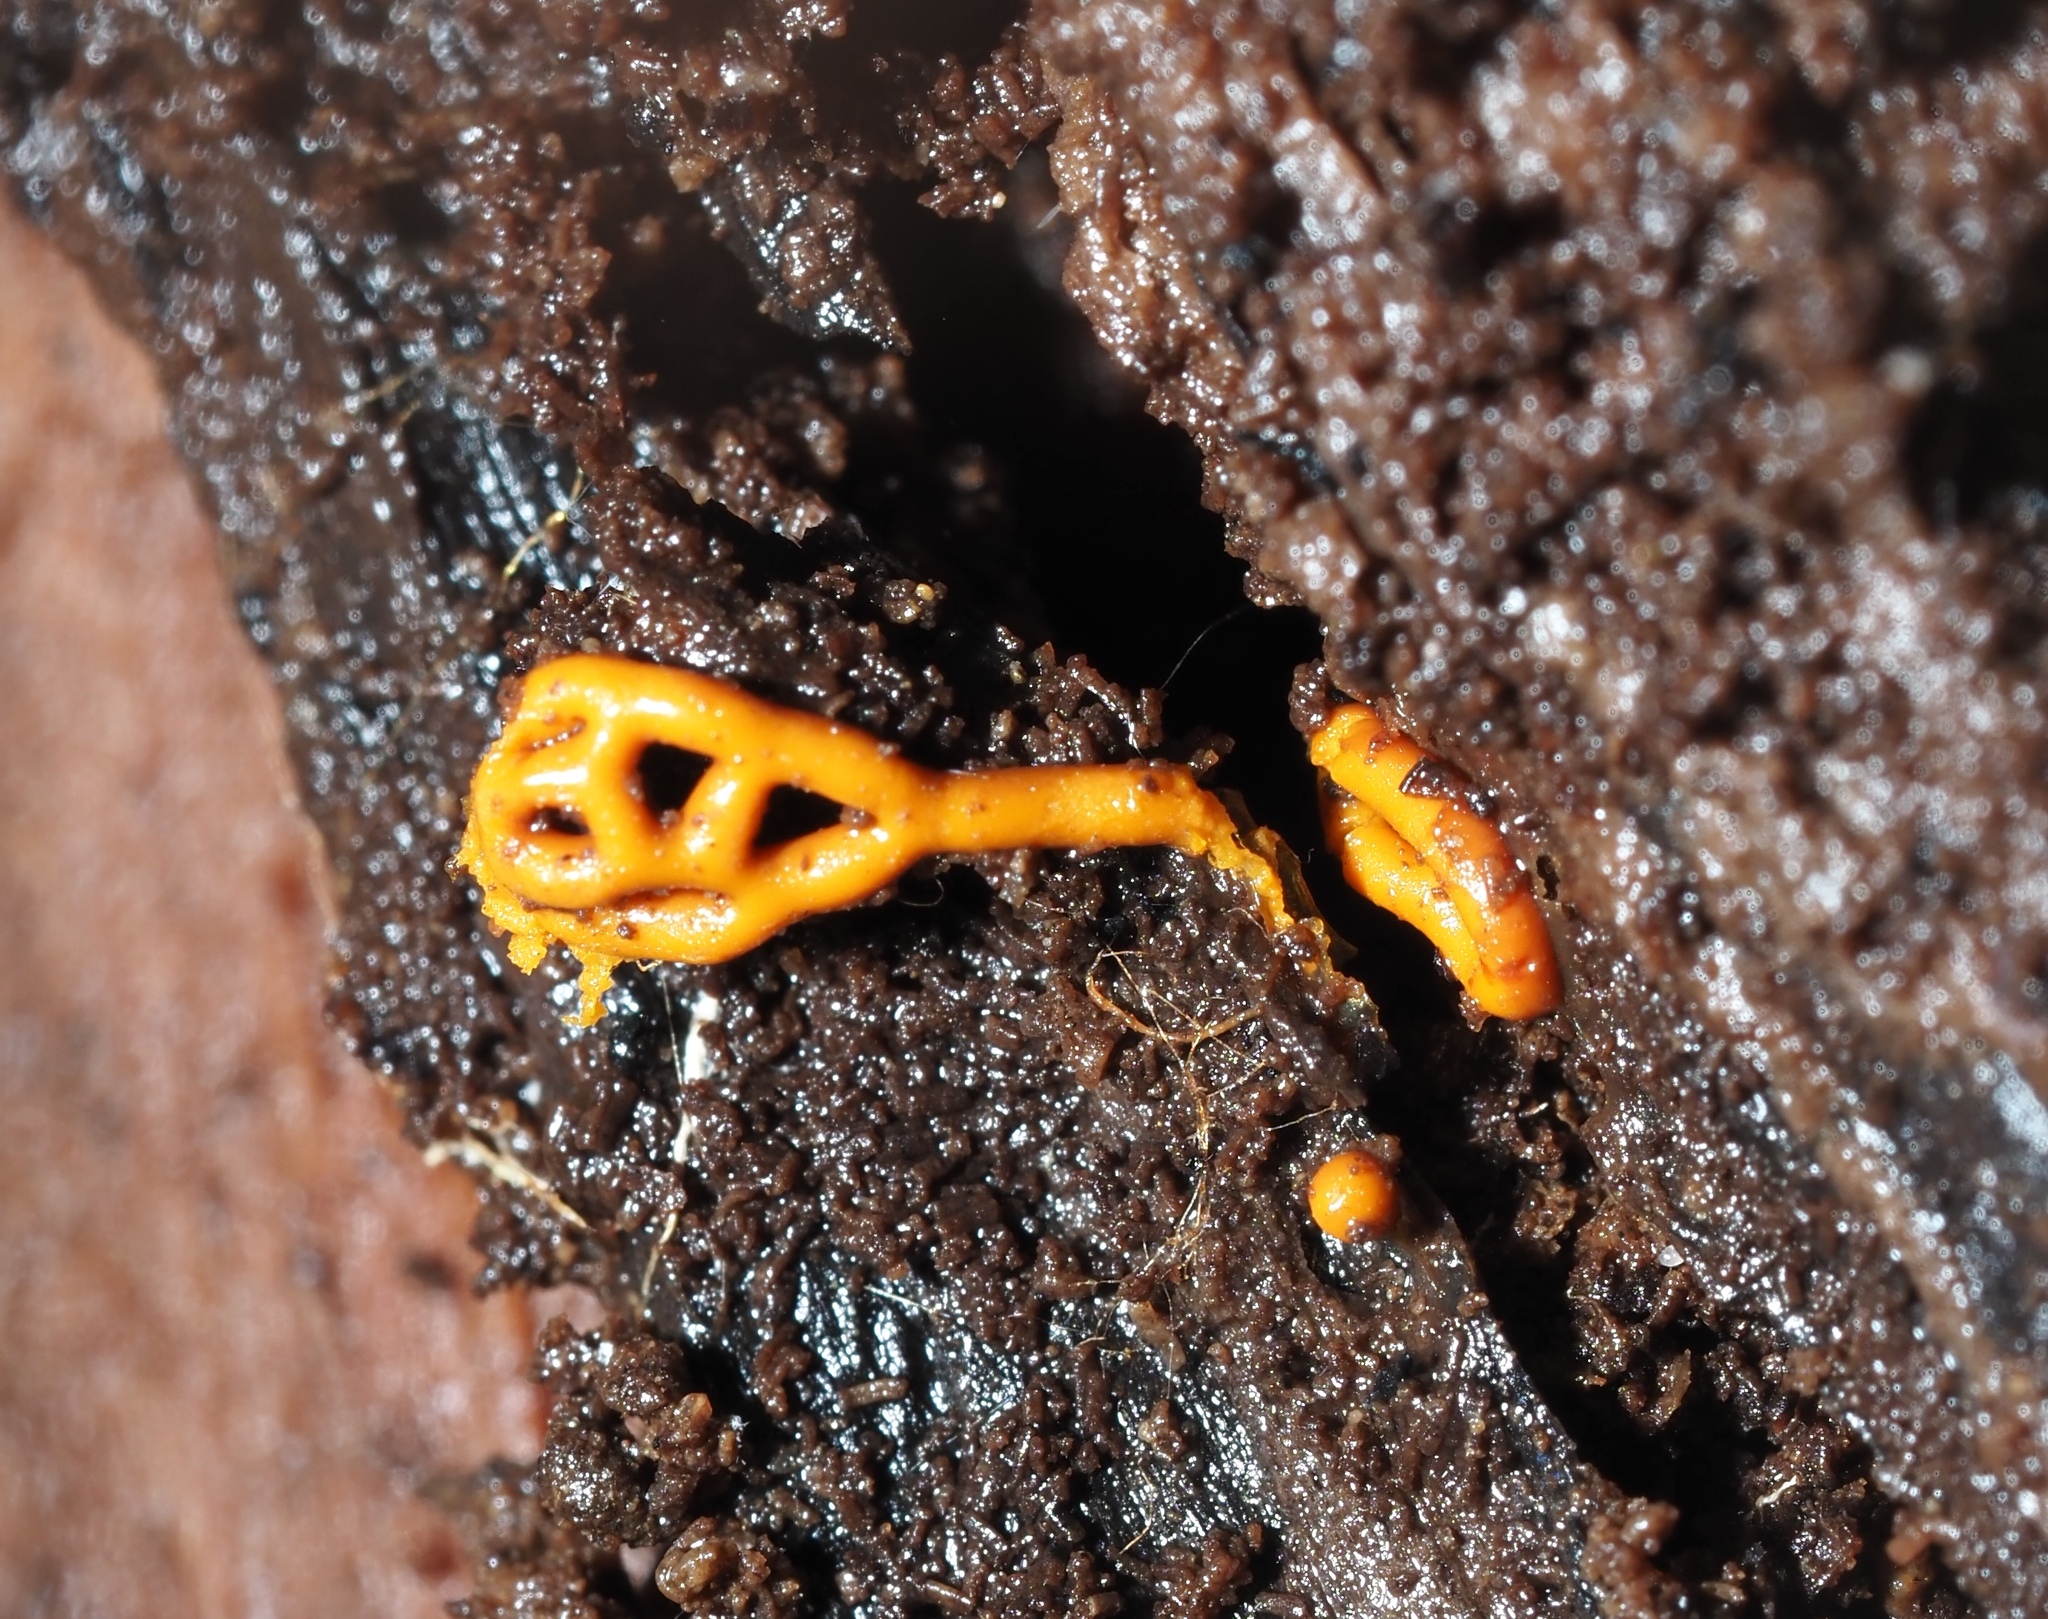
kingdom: Protozoa
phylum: Mycetozoa
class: Myxomycetes
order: Trichiales
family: Arcyriaceae
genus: Hemitrichia
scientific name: Hemitrichia serpula
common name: Pretzel slime mold
